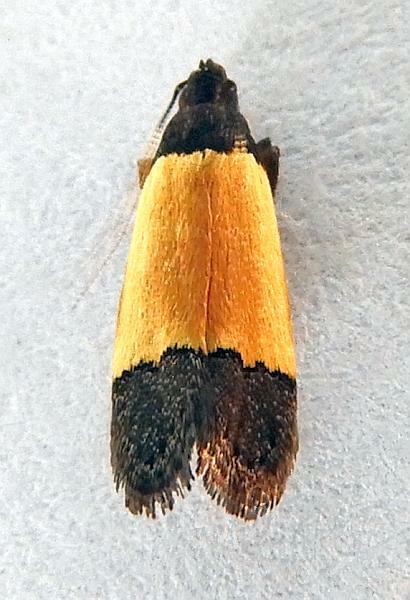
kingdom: Animalia
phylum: Arthropoda
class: Insecta
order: Lepidoptera
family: Gelechiidae
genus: Anacampsis
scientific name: Anacampsis coverdalella
